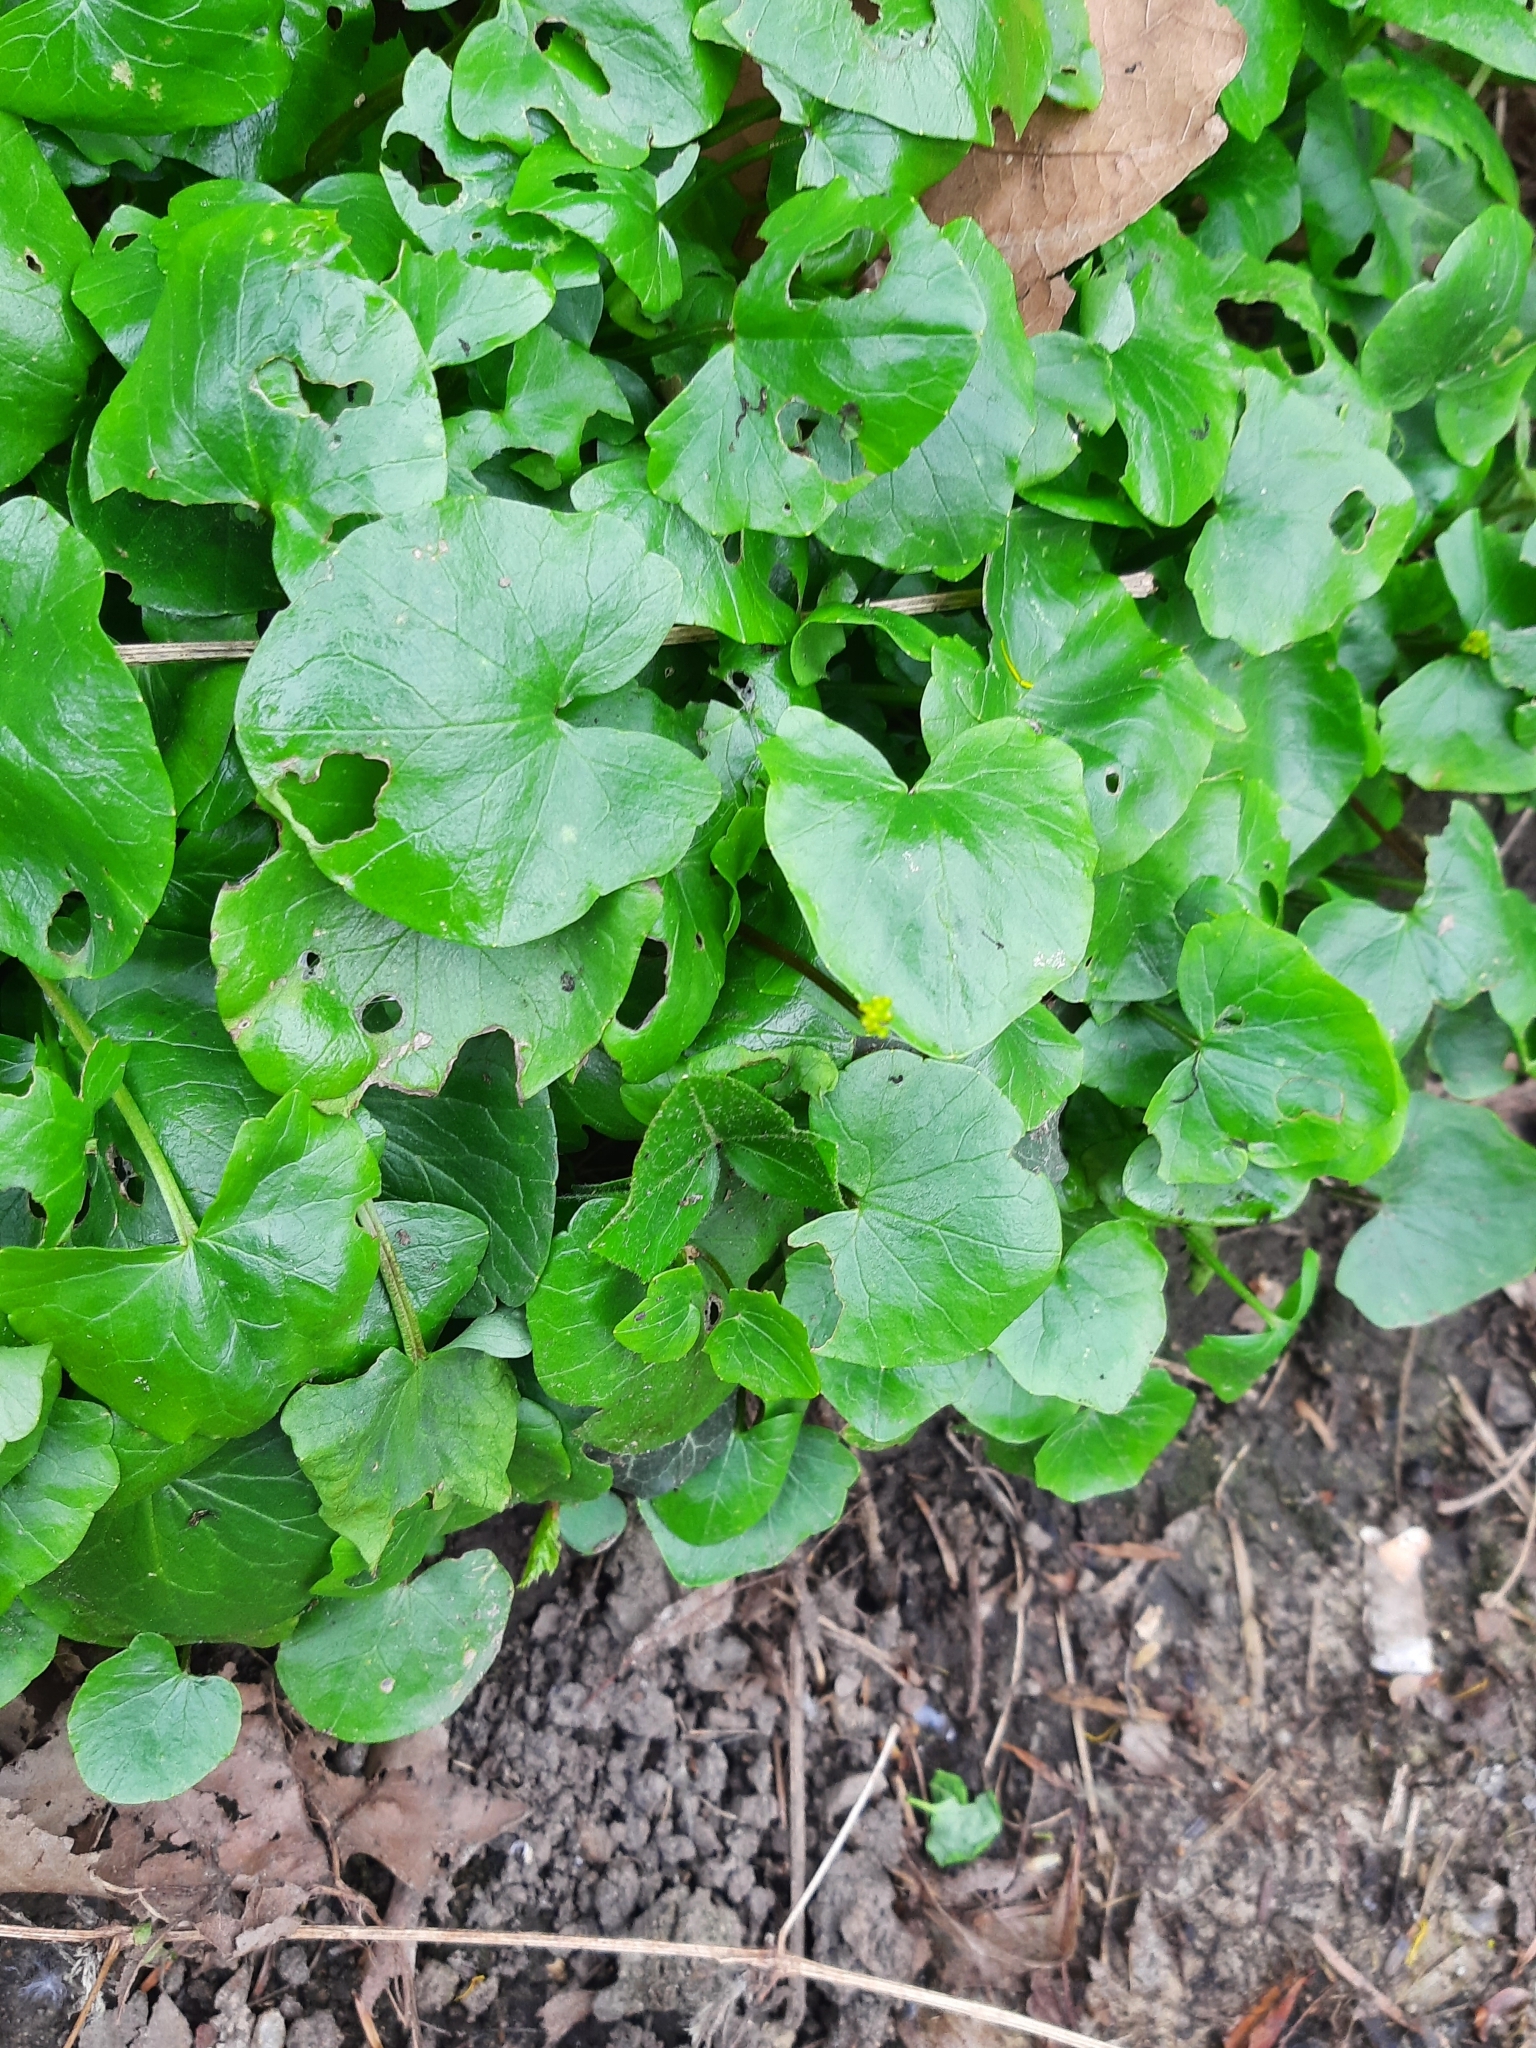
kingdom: Plantae
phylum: Tracheophyta
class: Magnoliopsida
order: Ranunculales
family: Ranunculaceae
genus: Ficaria
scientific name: Ficaria verna
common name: Lesser celandine
